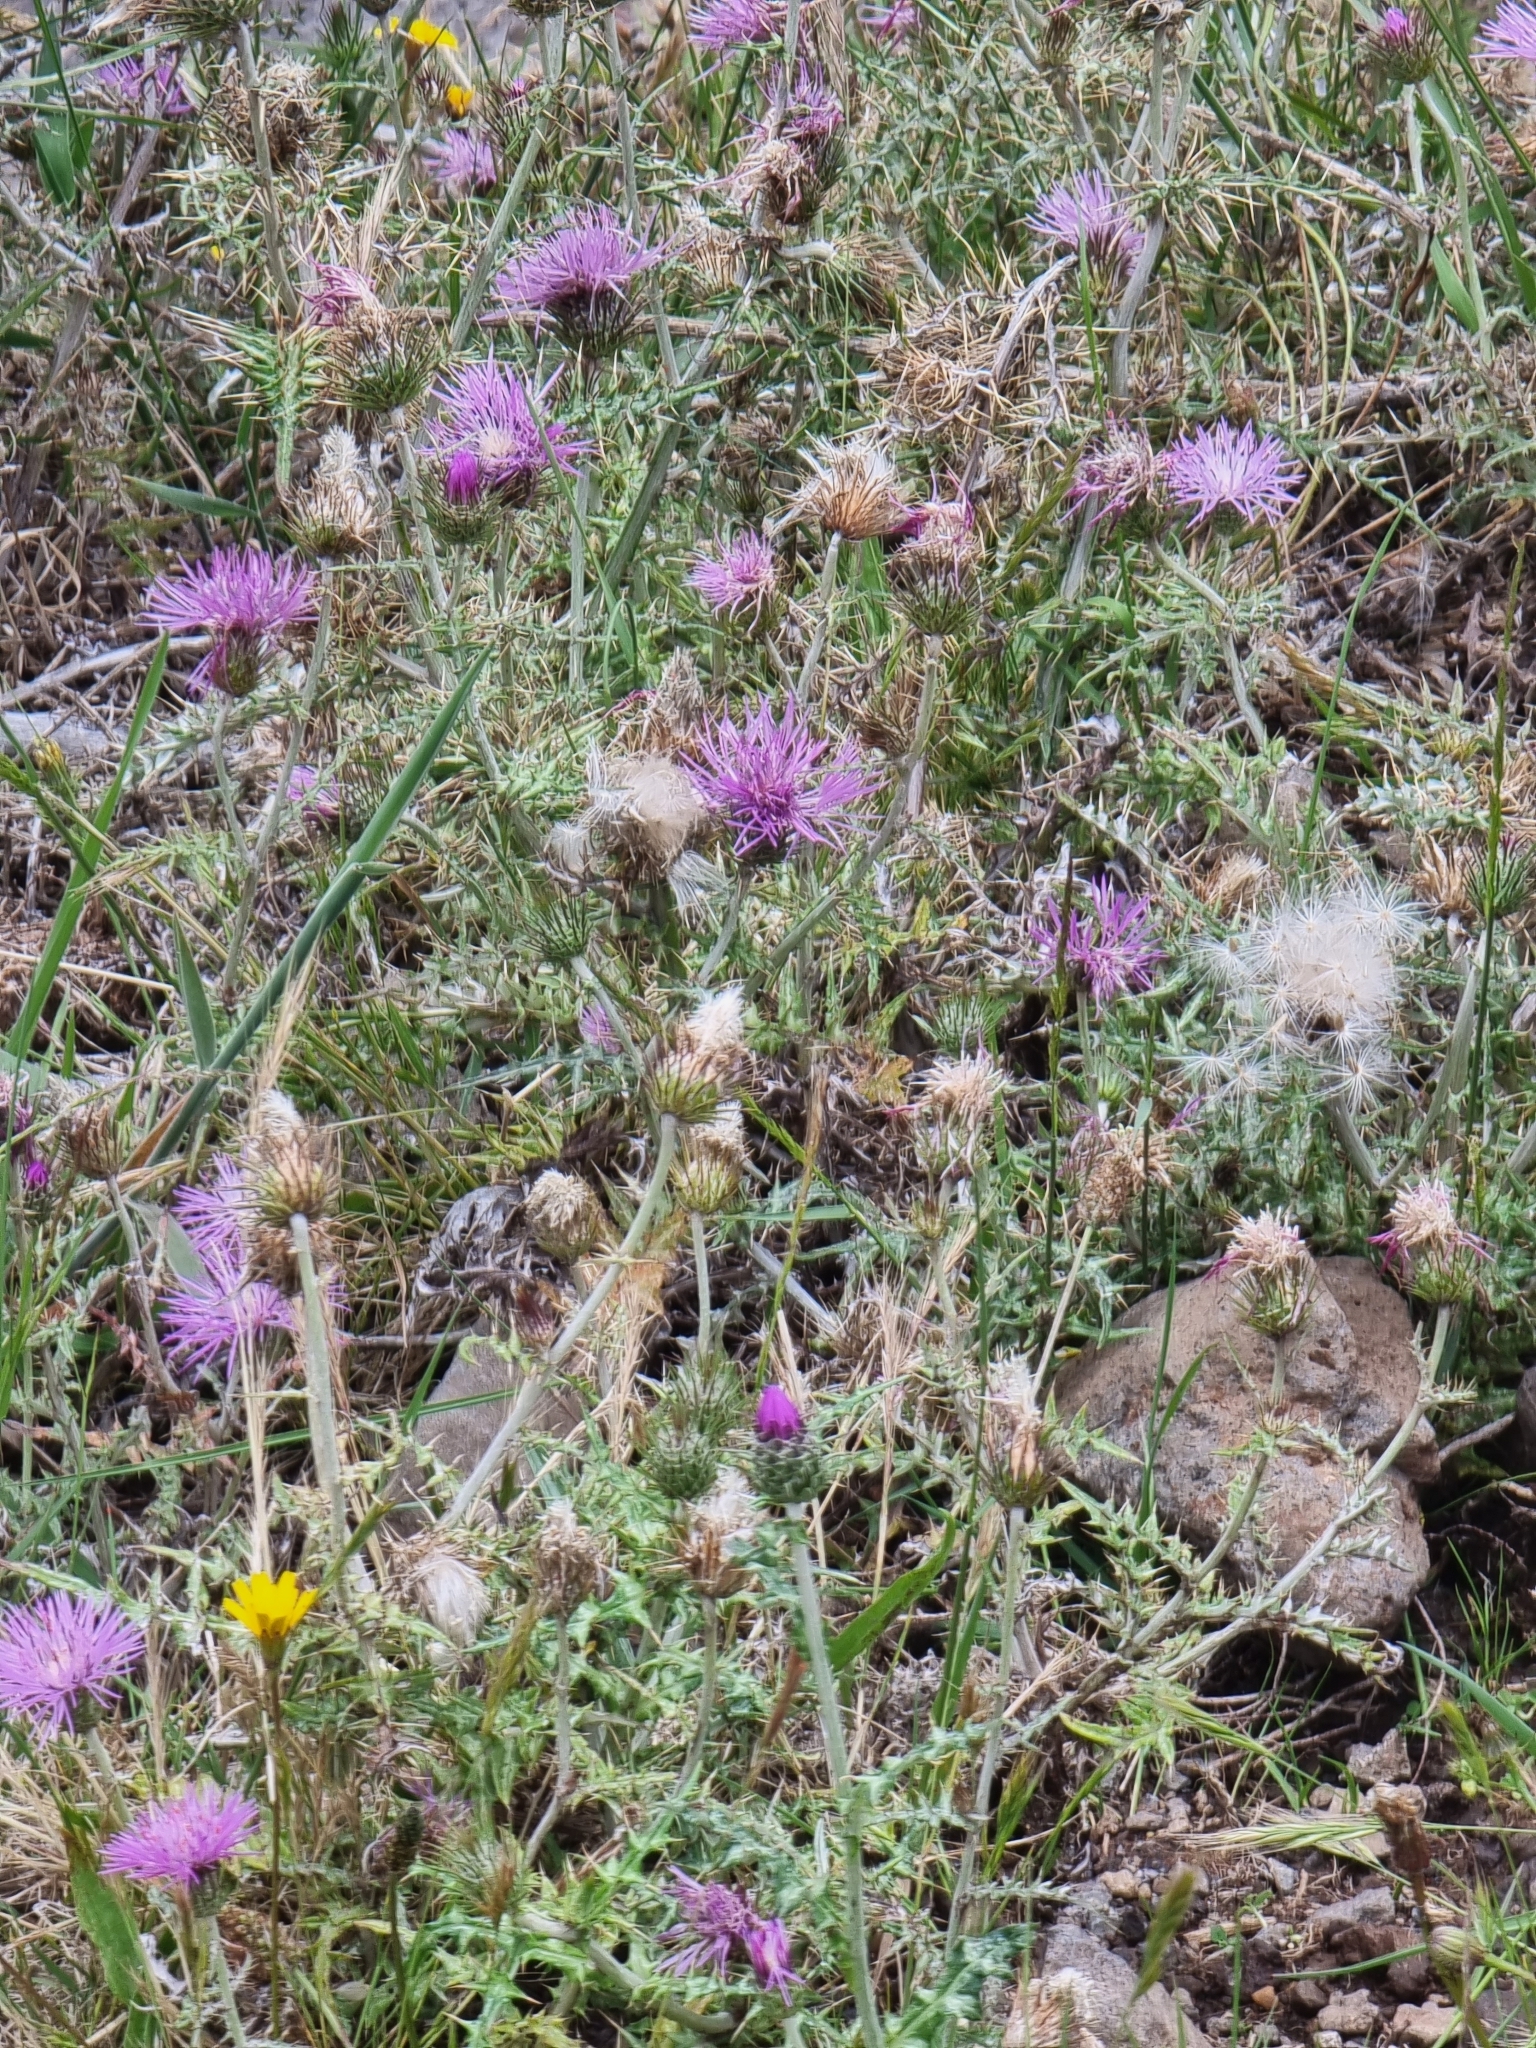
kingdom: Plantae
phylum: Tracheophyta
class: Magnoliopsida
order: Asterales
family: Asteraceae
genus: Galactites
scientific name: Galactites tomentosa
